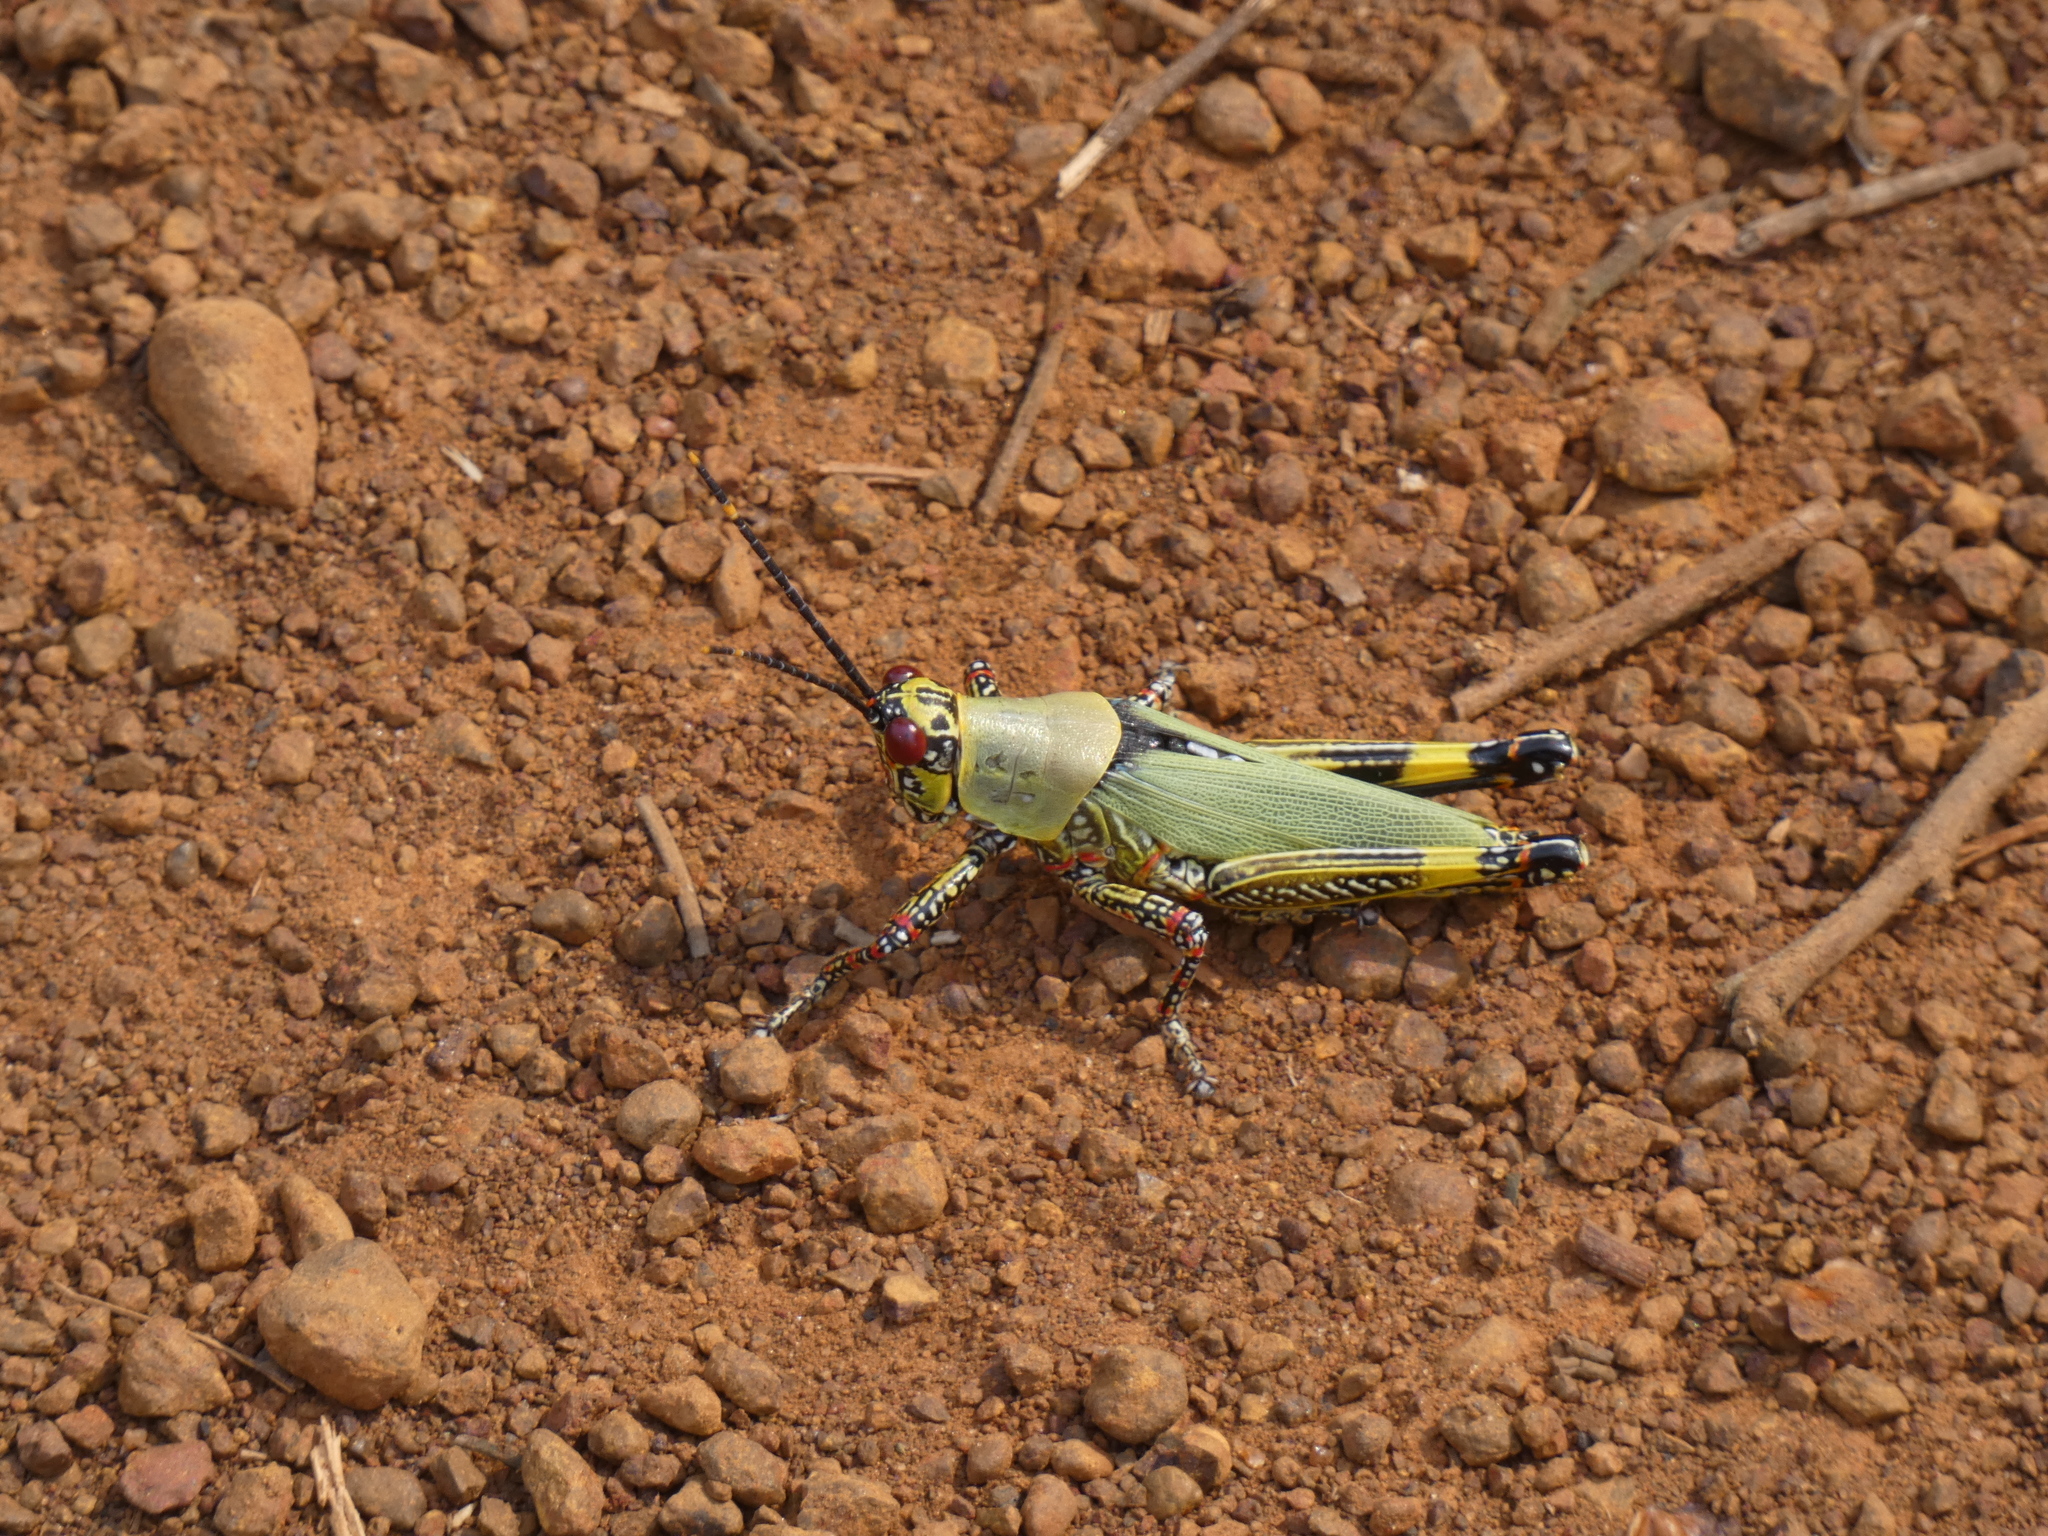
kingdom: Animalia
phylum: Arthropoda
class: Insecta
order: Orthoptera
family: Pyrgomorphidae
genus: Zonocerus
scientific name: Zonocerus variegatus
